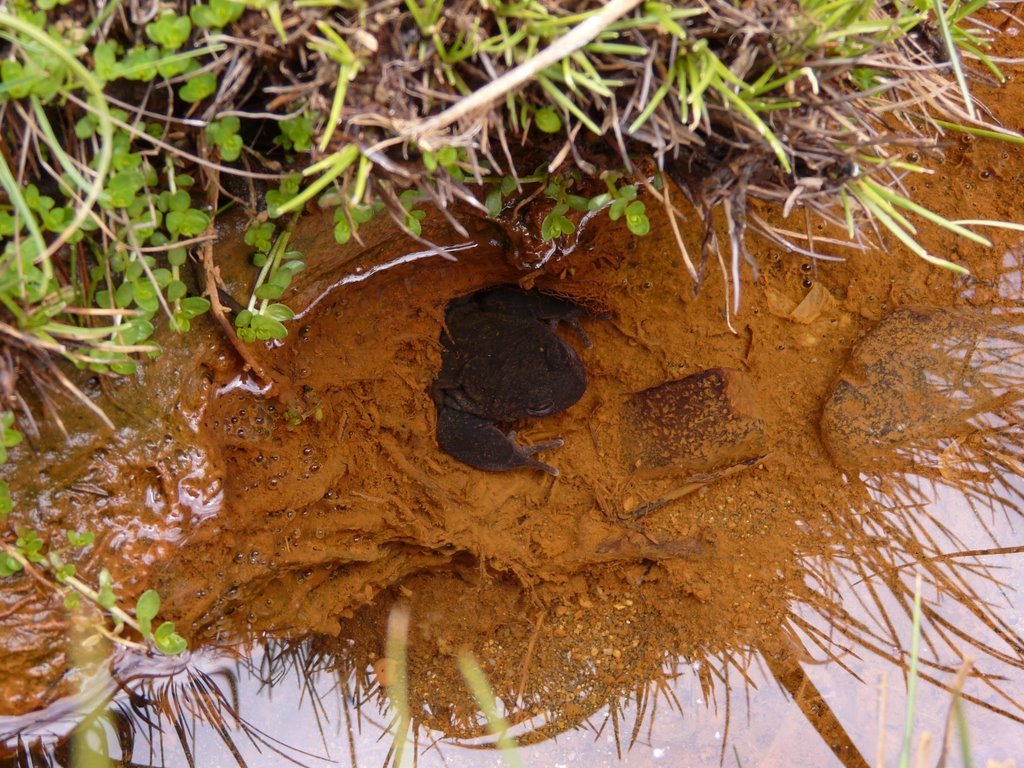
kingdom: Animalia
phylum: Chordata
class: Amphibia
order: Anura
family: Alsodidae
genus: Alsodes
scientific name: Alsodes pehuenche
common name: Pehuenche spiny-chest frog
